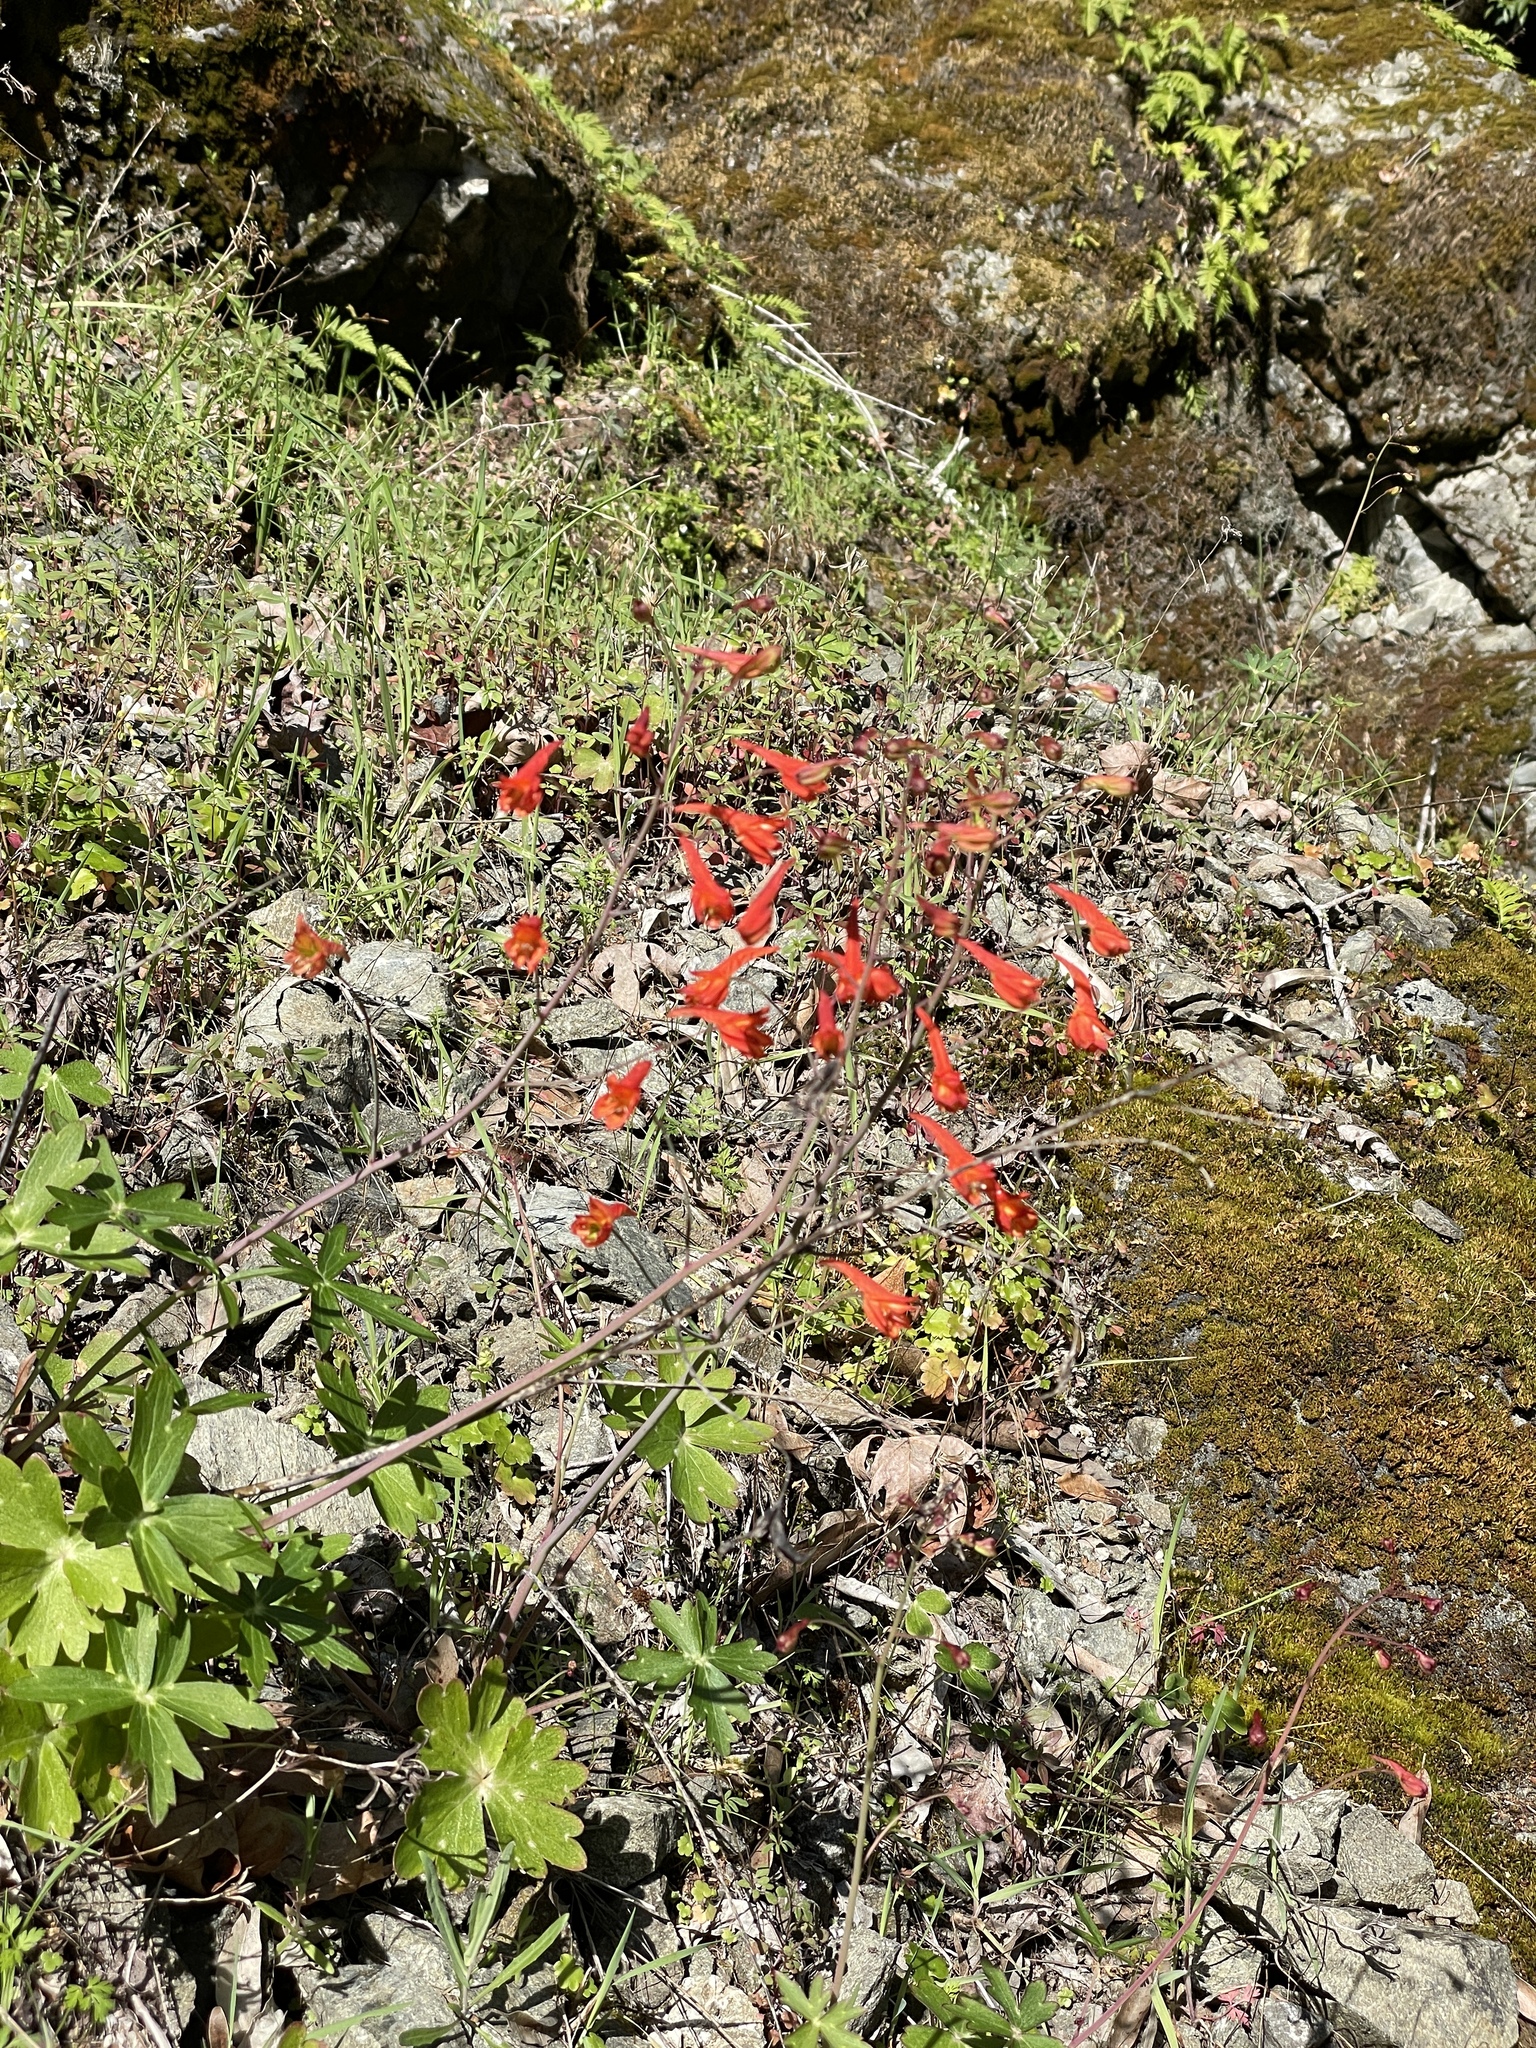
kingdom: Plantae
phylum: Tracheophyta
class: Magnoliopsida
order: Ranunculales
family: Ranunculaceae
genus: Delphinium
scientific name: Delphinium nudicaule
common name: Red larkspur
